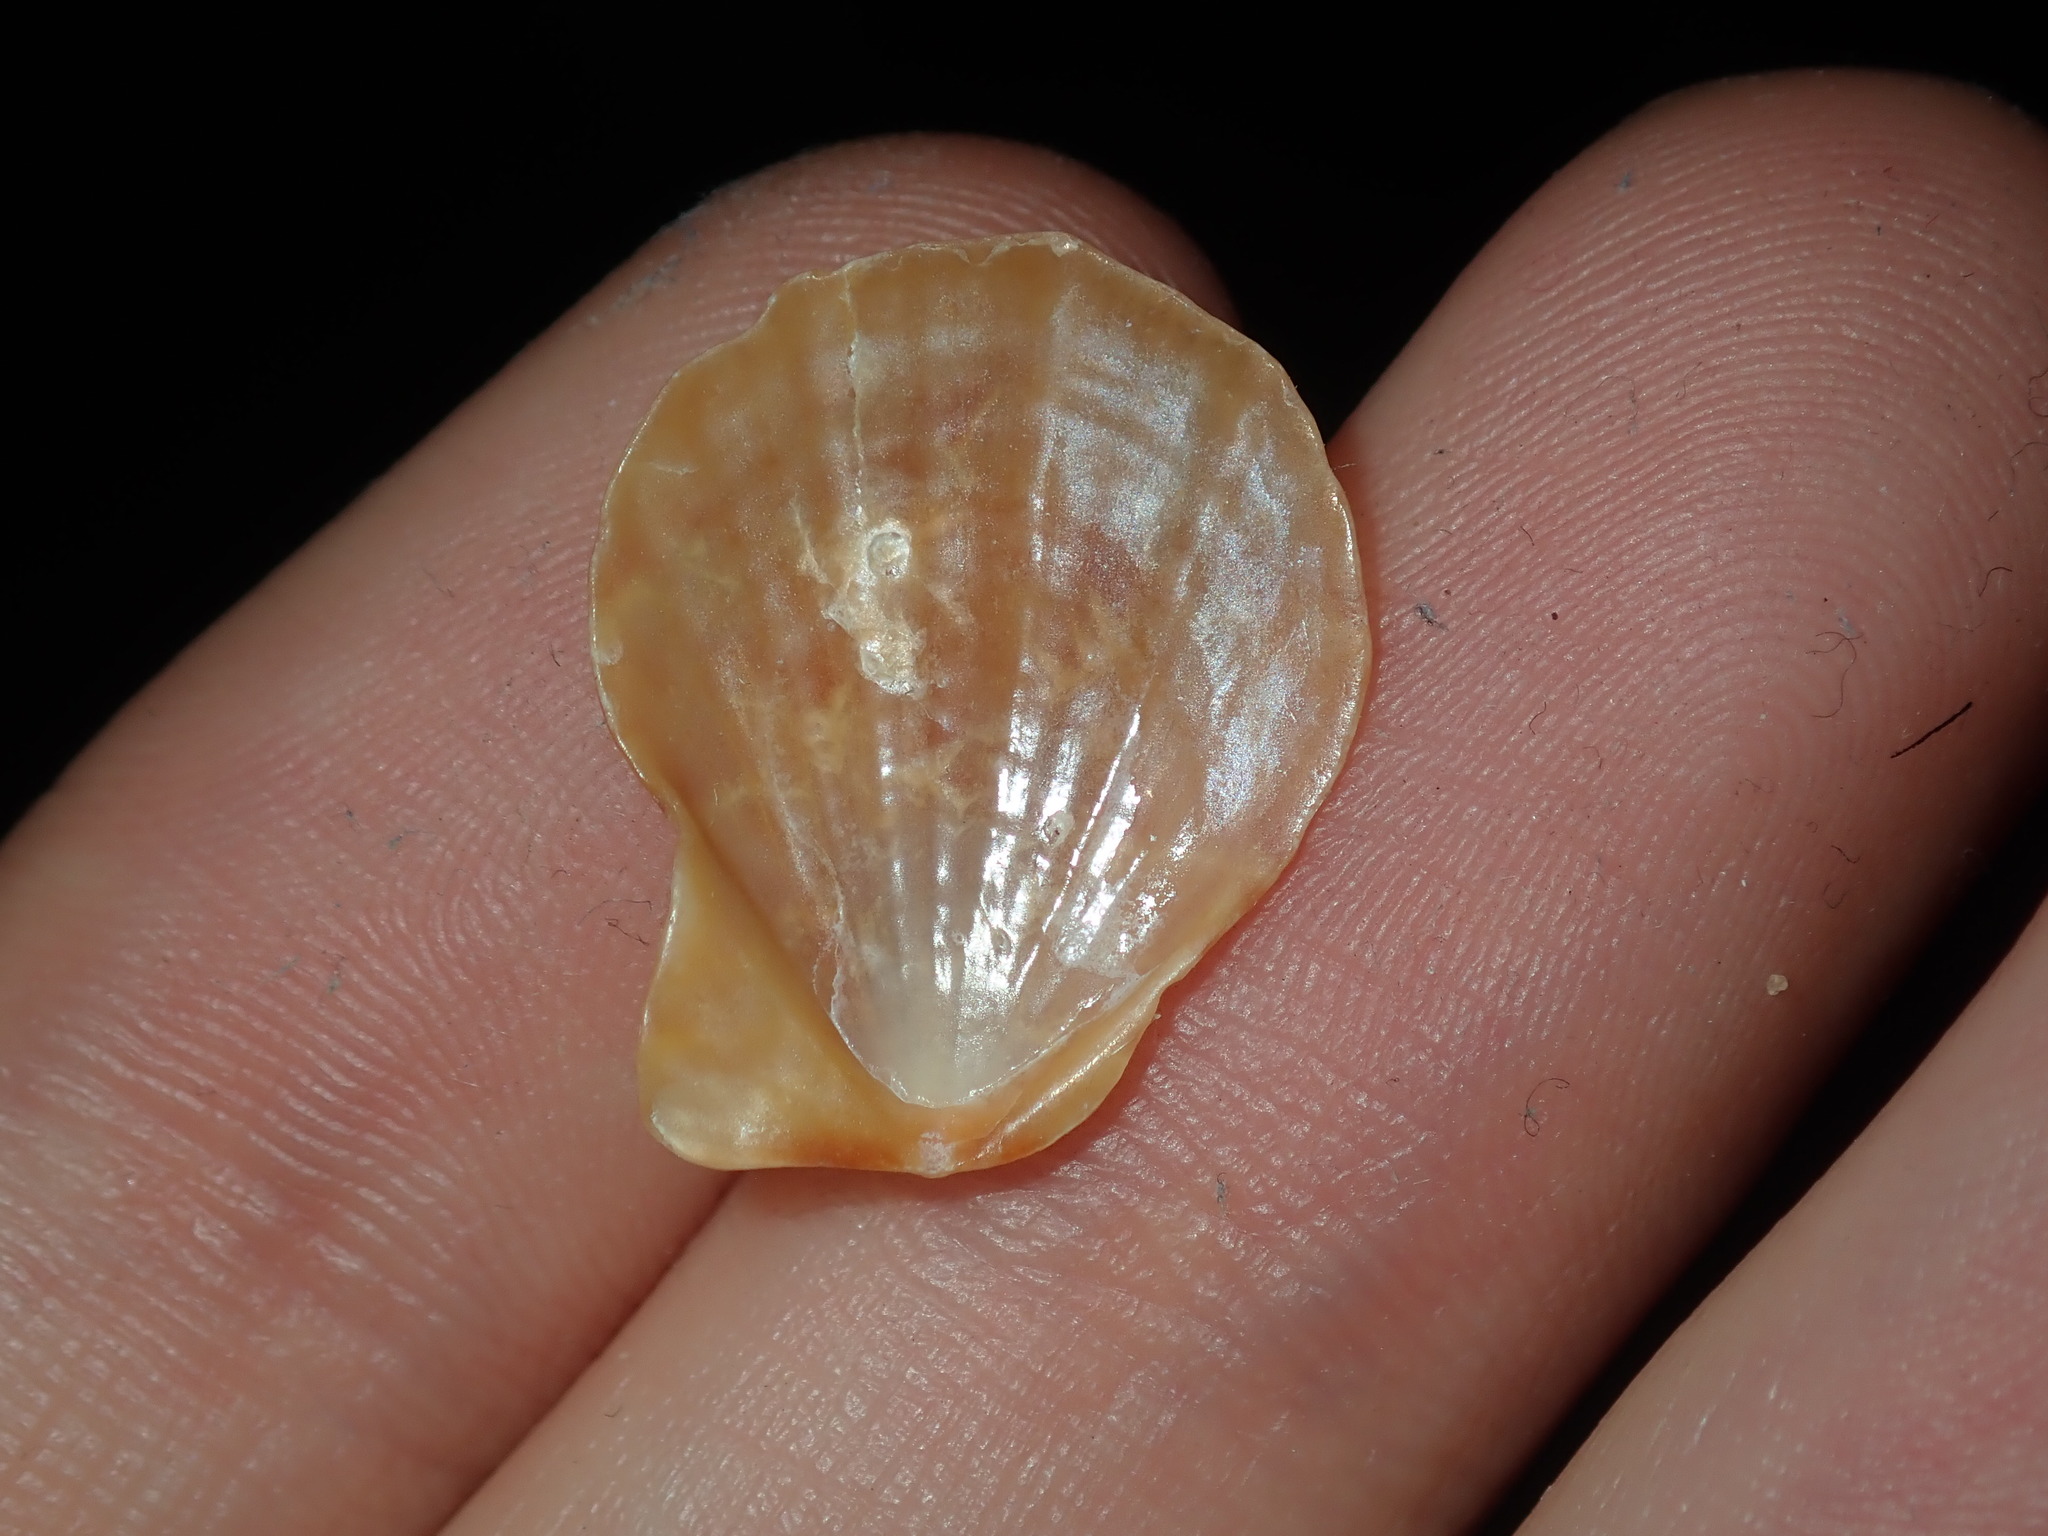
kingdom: Animalia
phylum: Mollusca
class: Bivalvia
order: Pectinida
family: Pectinidae
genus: Scaeochlamys
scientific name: Scaeochlamys livida
